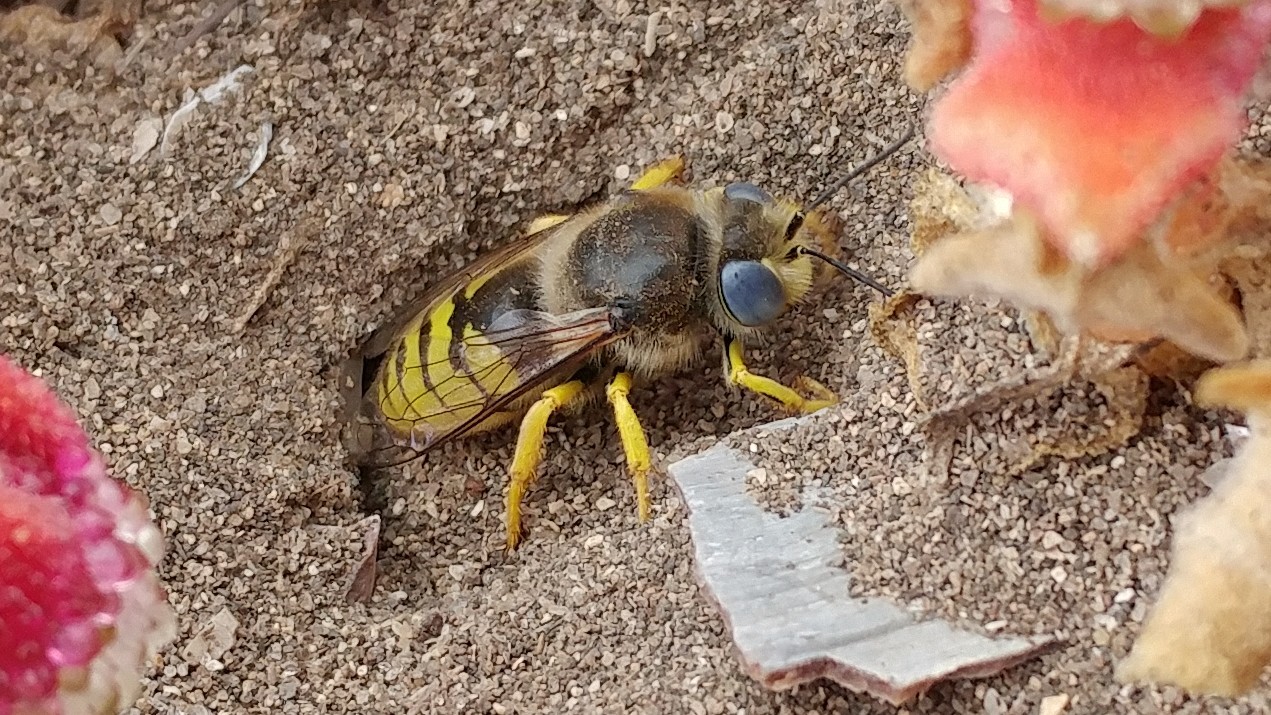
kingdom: Animalia
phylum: Arthropoda
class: Insecta
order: Hymenoptera
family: Crabronidae
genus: Bembix
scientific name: Bembix americana
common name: American sand wasp
